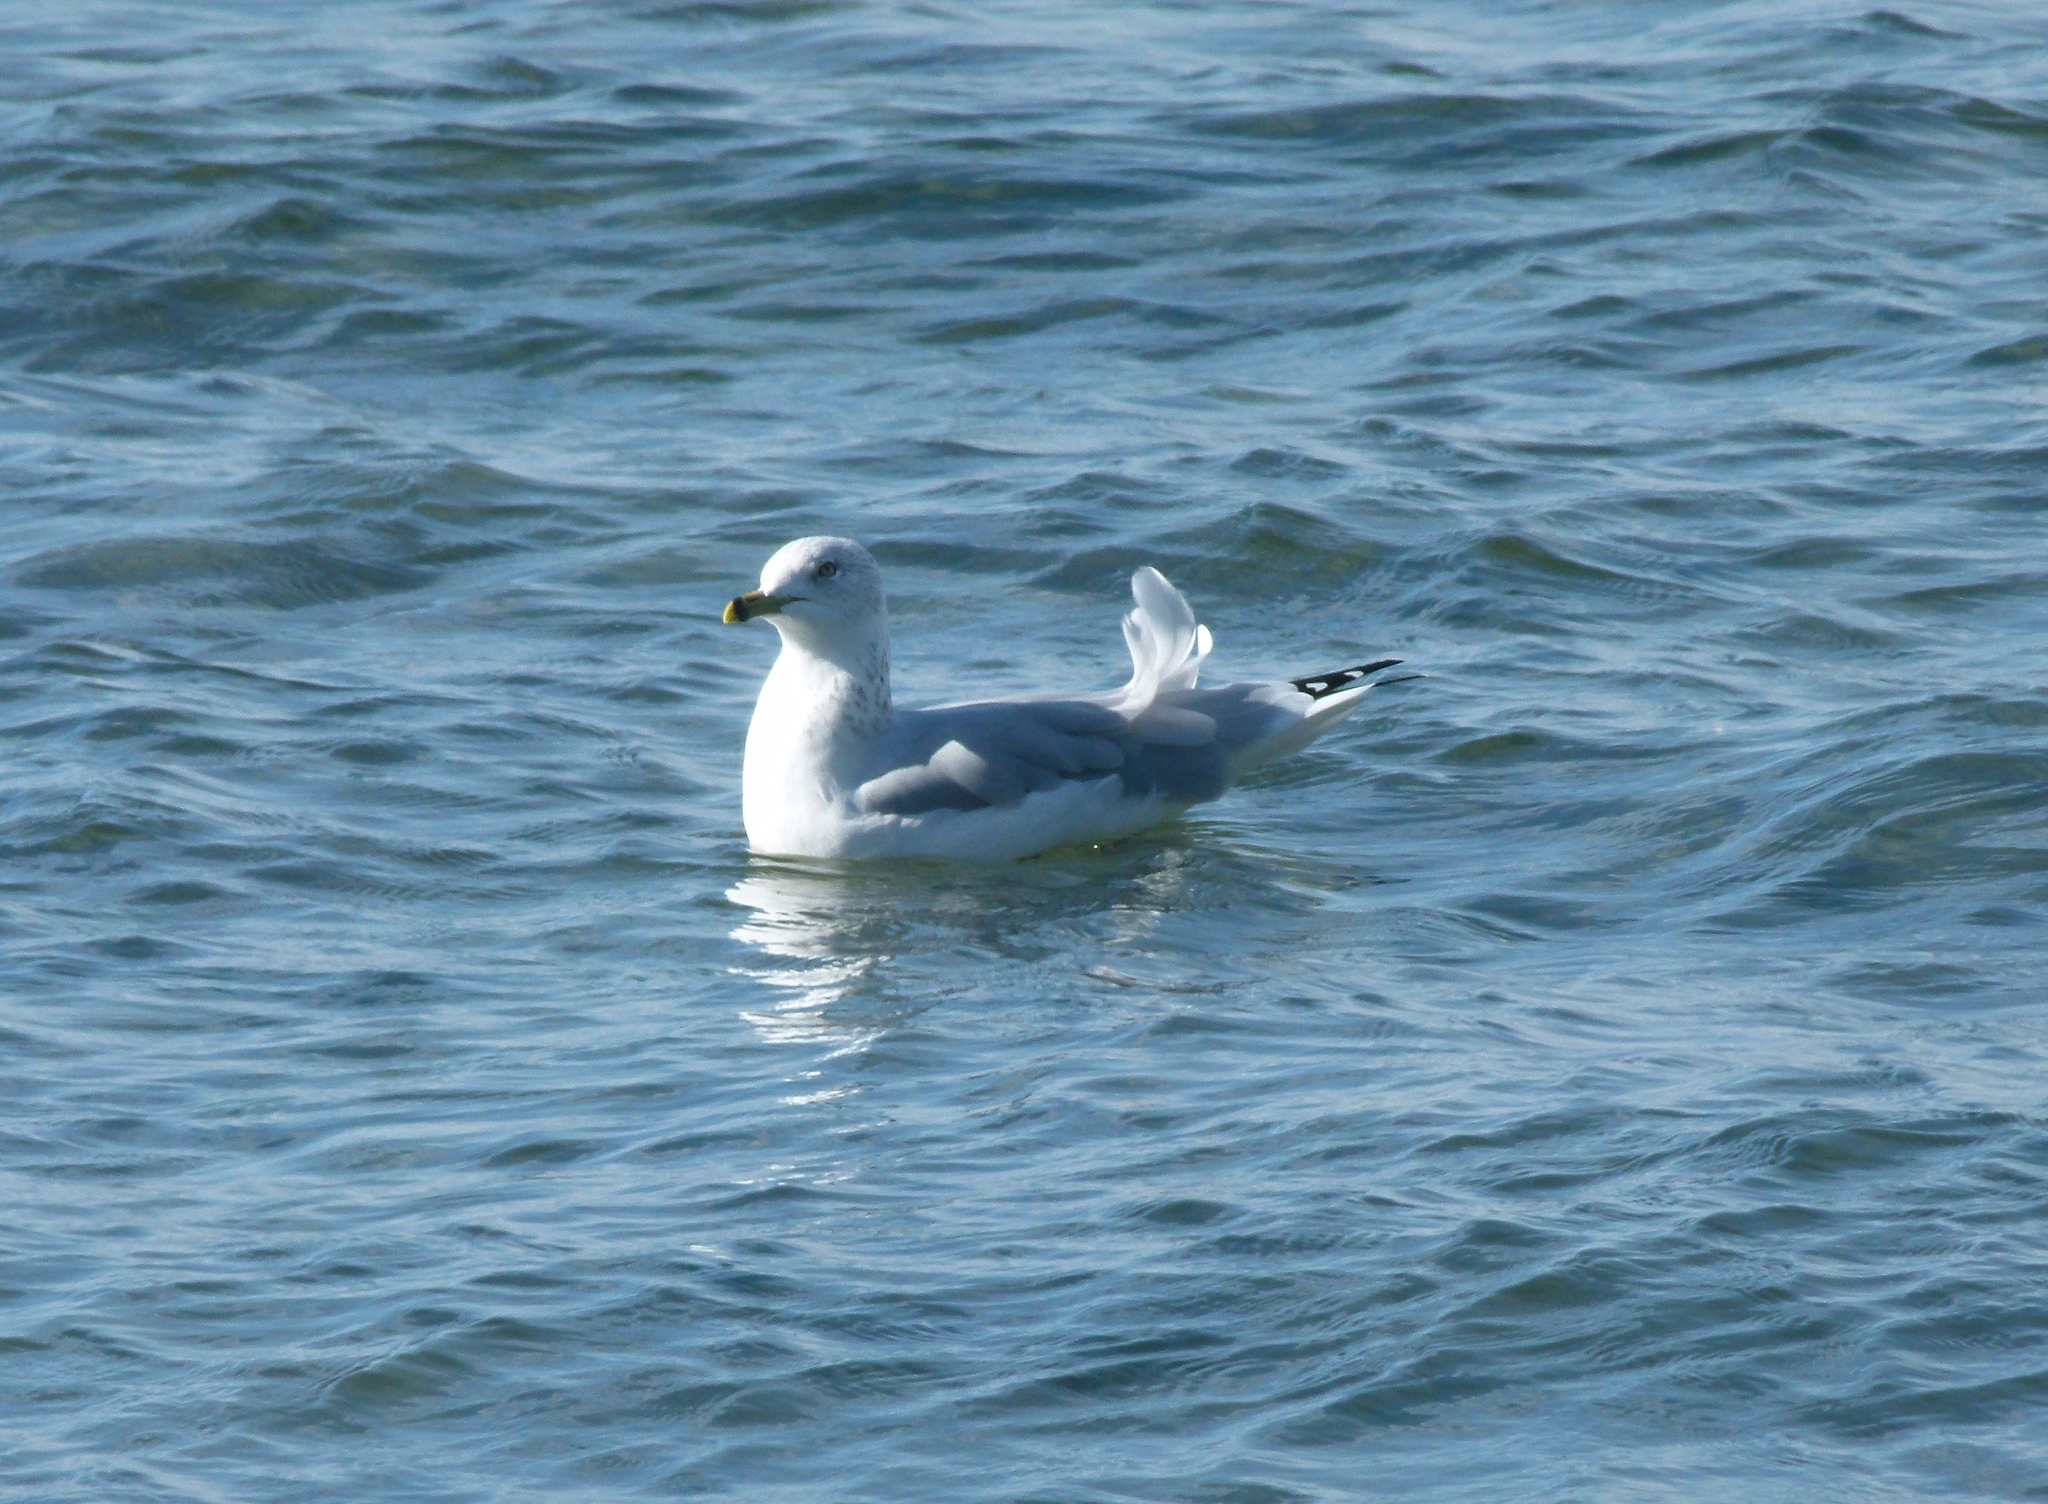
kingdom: Animalia
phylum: Chordata
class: Aves
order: Charadriiformes
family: Laridae
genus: Larus
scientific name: Larus delawarensis
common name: Ring-billed gull
